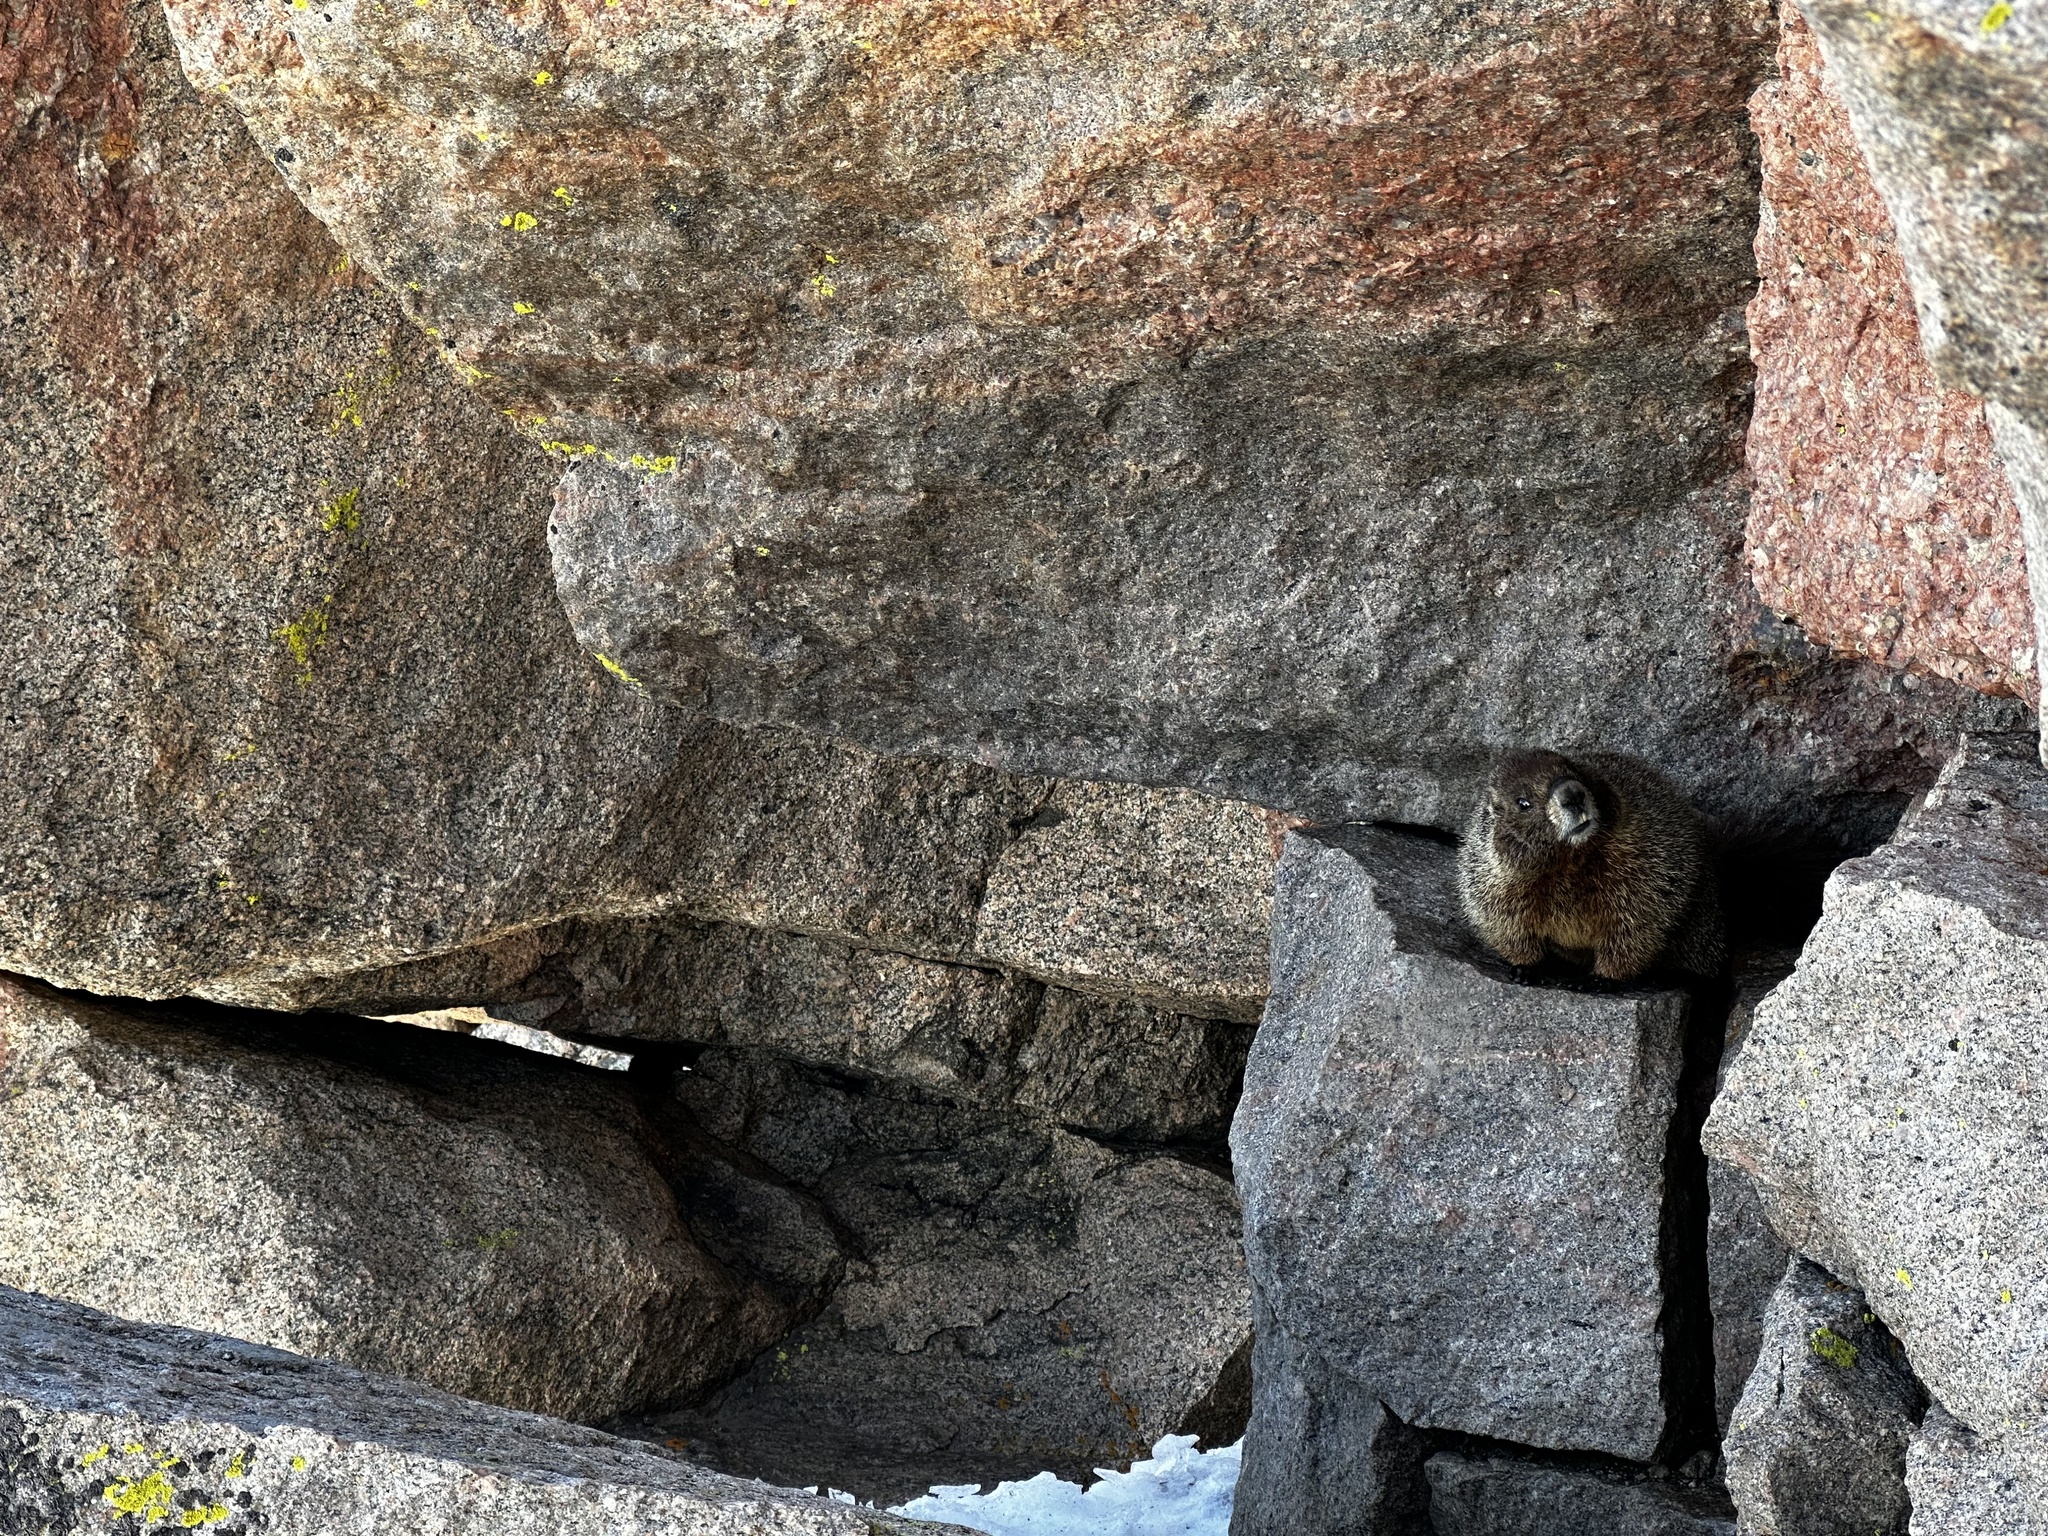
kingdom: Animalia
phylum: Chordata
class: Mammalia
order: Rodentia
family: Sciuridae
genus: Marmota
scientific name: Marmota flaviventris
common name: Yellow-bellied marmot
